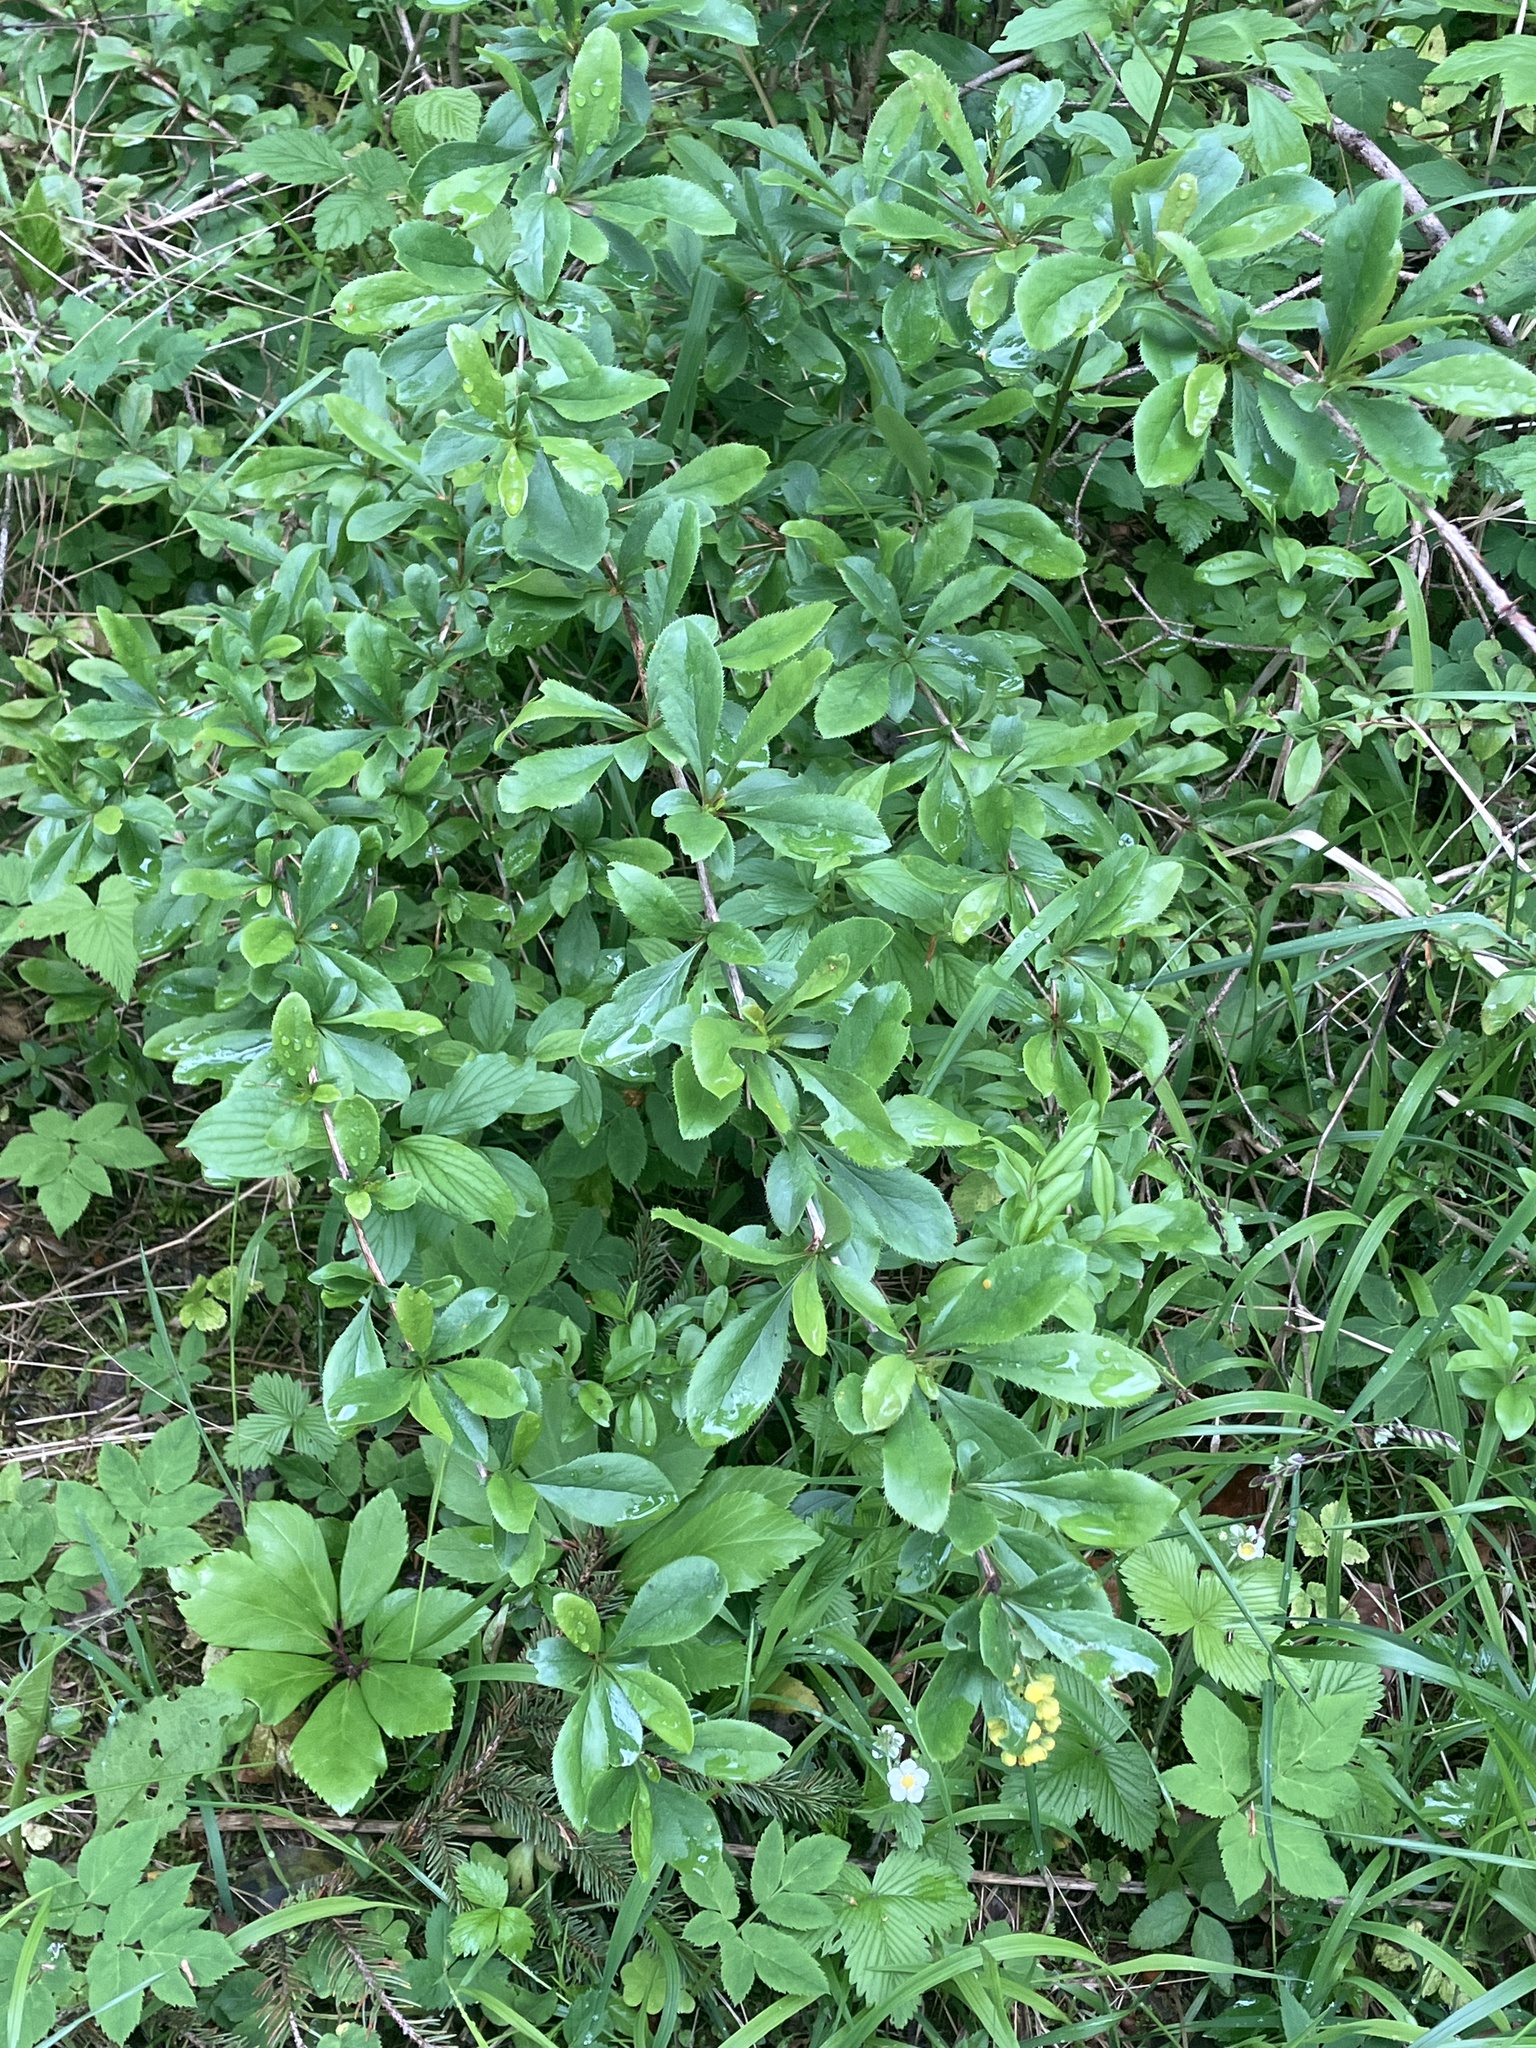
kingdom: Plantae
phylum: Tracheophyta
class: Magnoliopsida
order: Ranunculales
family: Berberidaceae
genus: Berberis
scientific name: Berberis vulgaris
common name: Barberry
